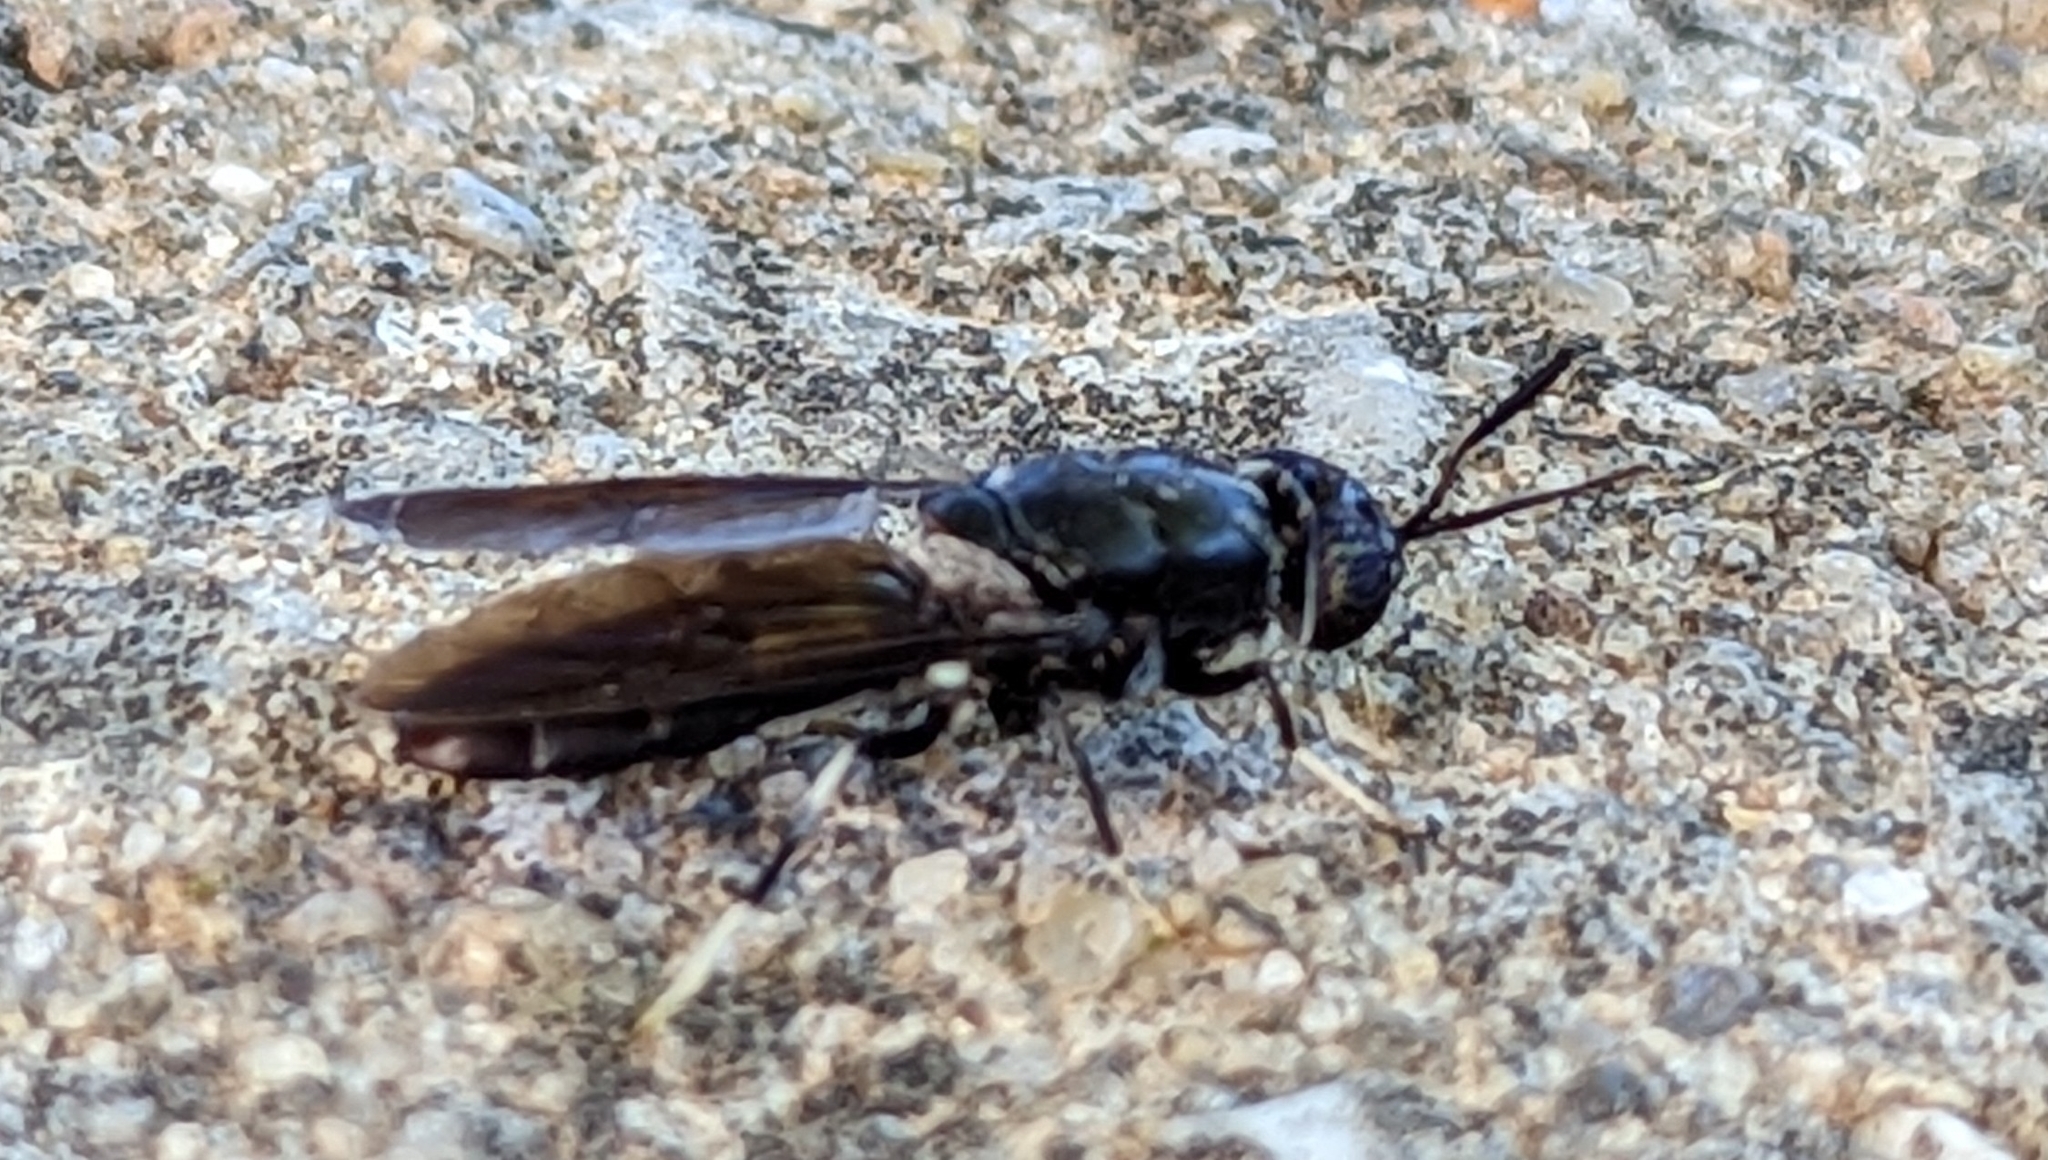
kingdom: Animalia
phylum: Arthropoda
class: Insecta
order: Diptera
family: Stratiomyidae
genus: Hermetia
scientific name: Hermetia illucens
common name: Black soldier fly
